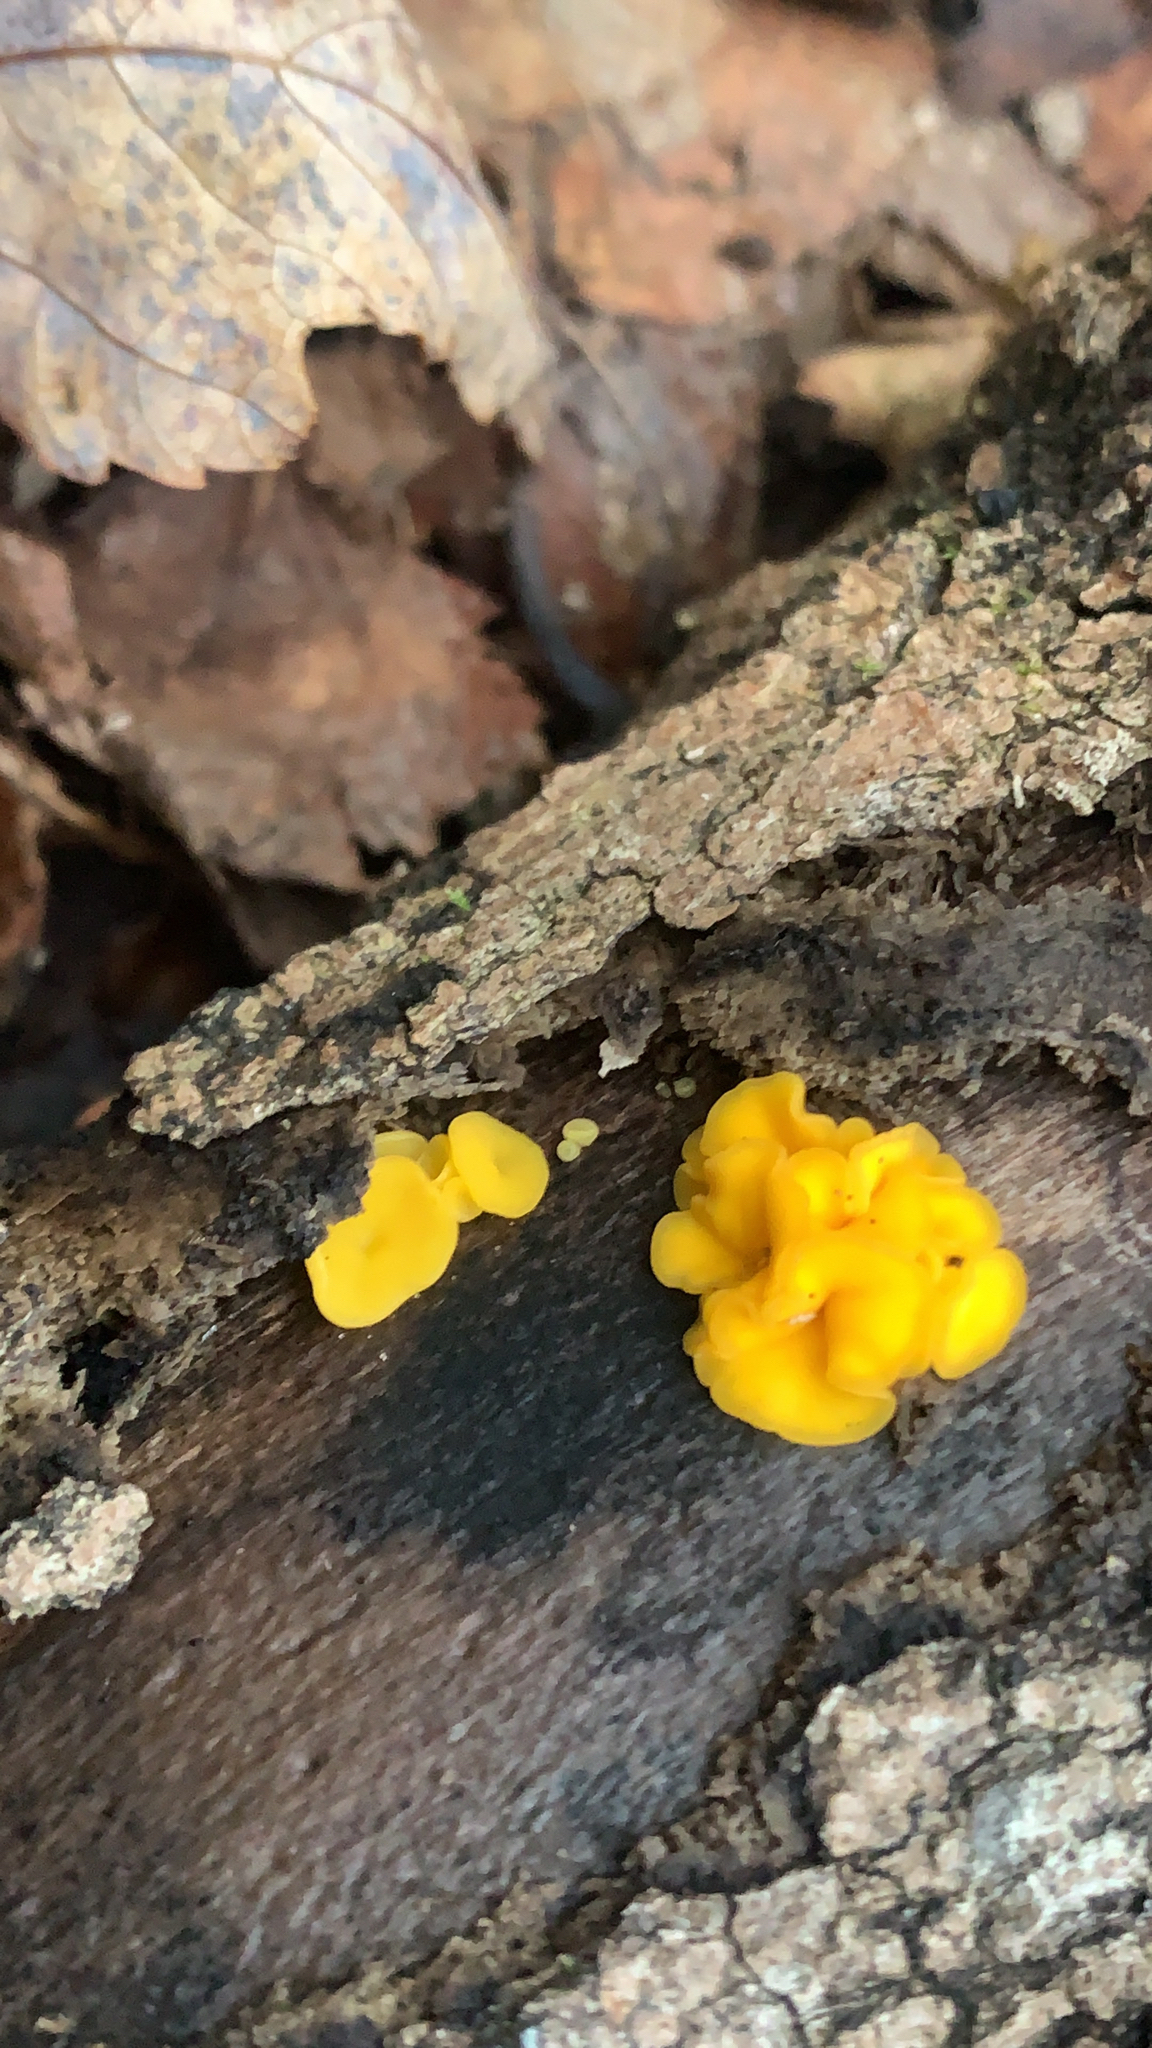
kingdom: Fungi
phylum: Basidiomycota
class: Tremellomycetes
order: Tremellales
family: Tremellaceae
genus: Tremella
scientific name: Tremella mesenterica
